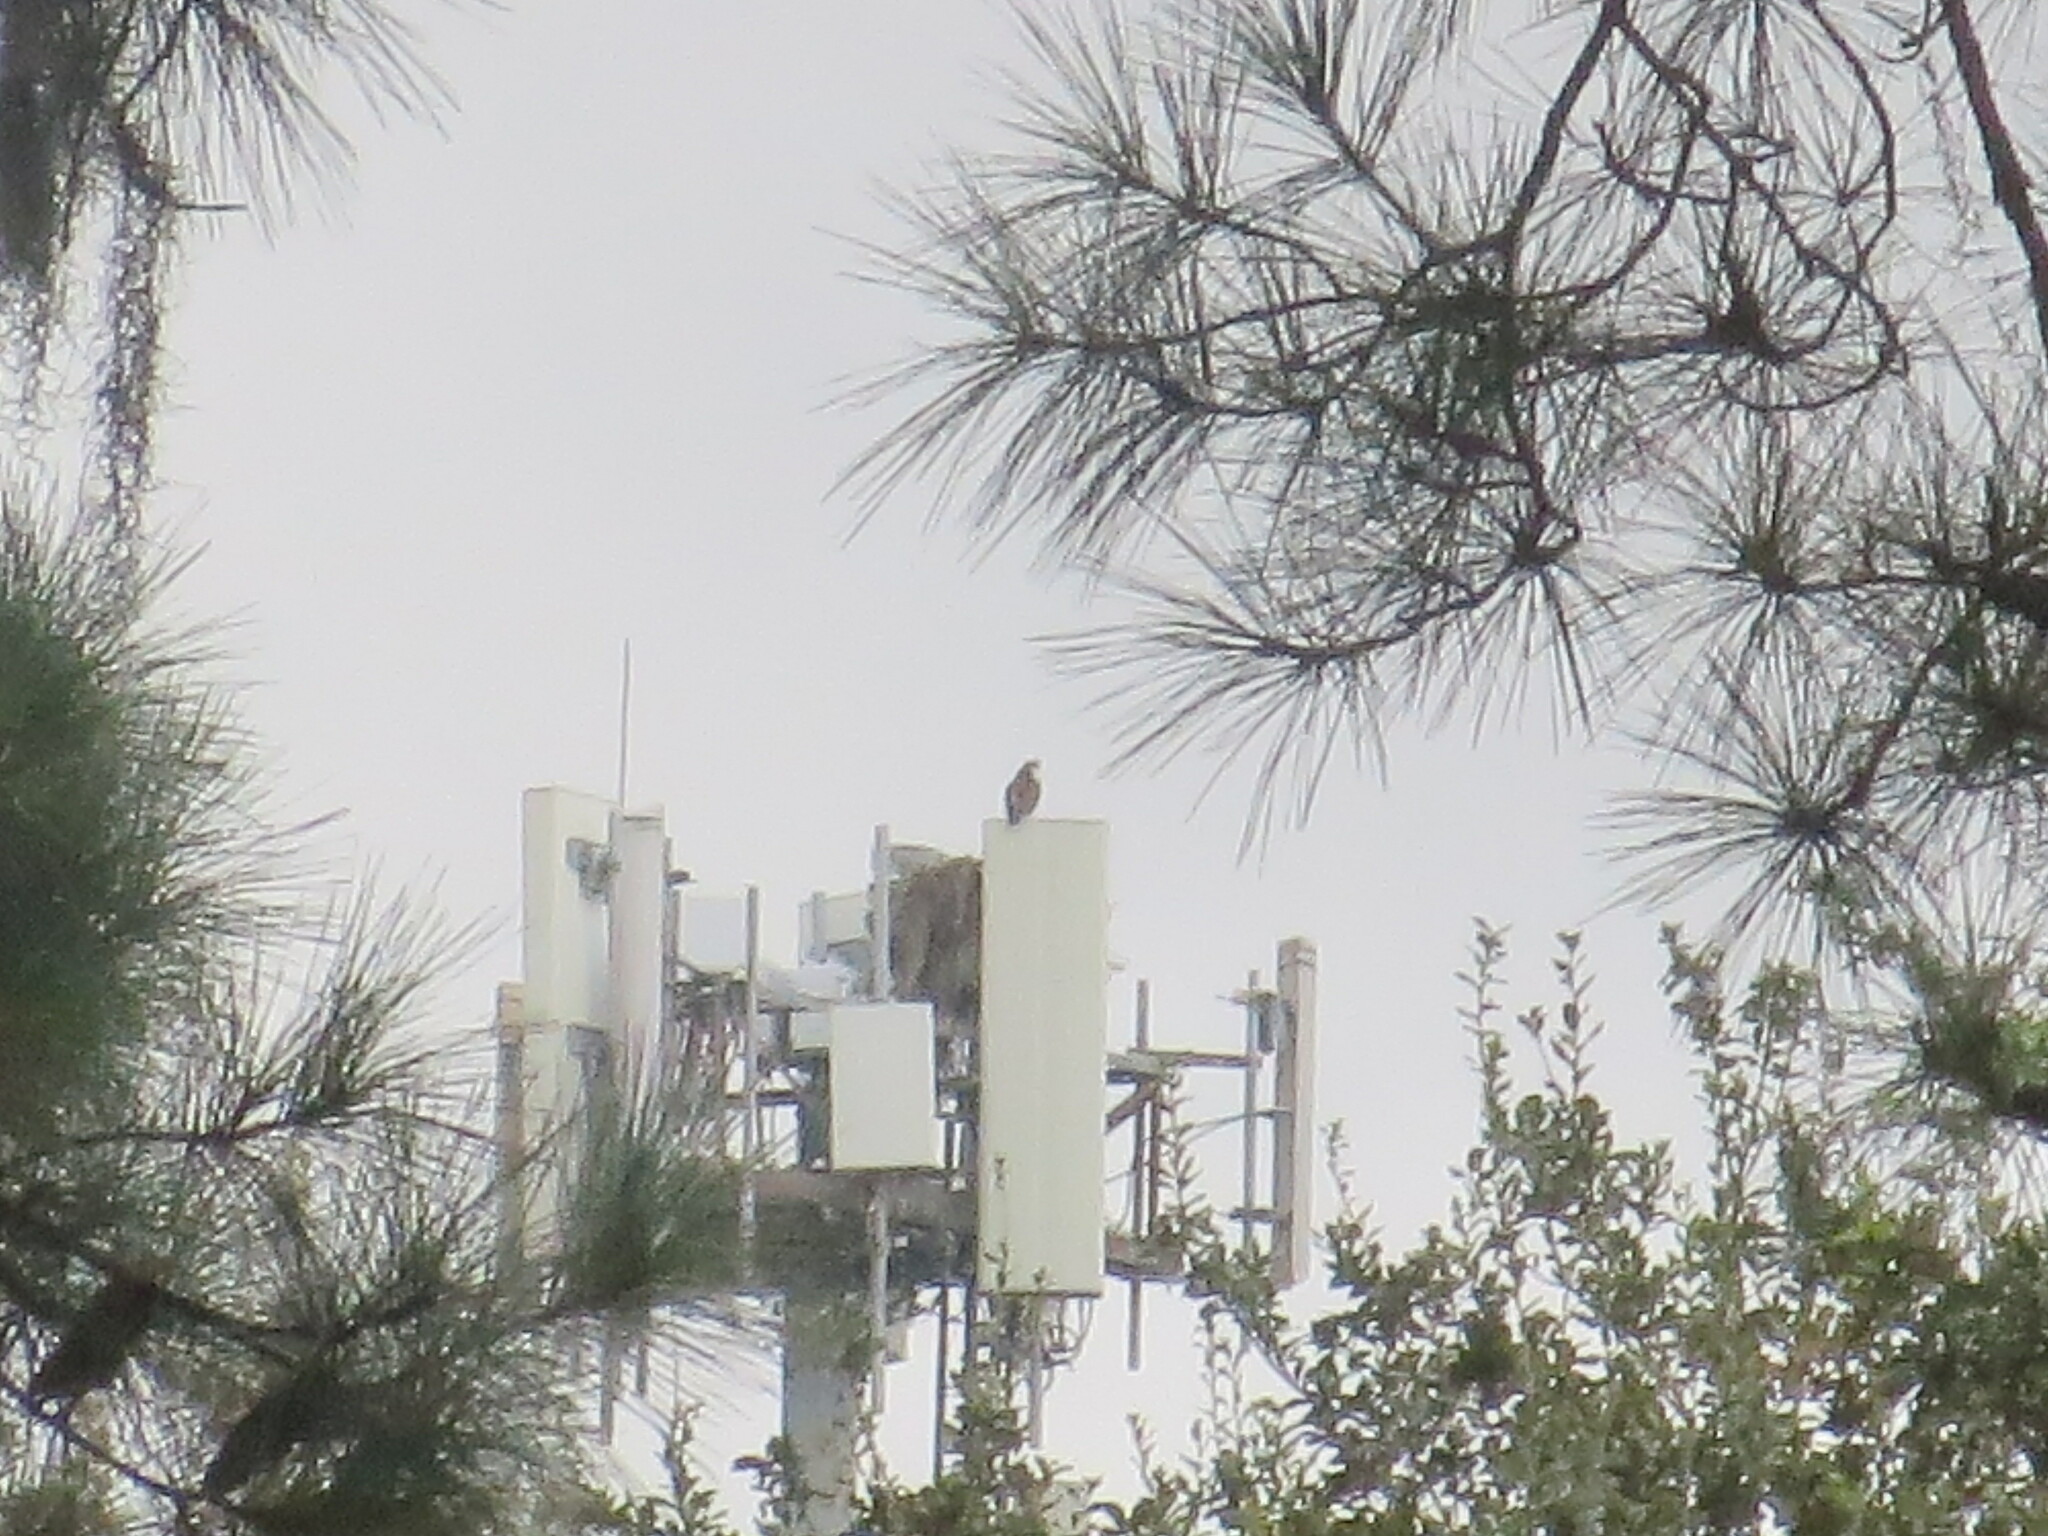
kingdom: Animalia
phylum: Chordata
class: Aves
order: Accipitriformes
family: Pandionidae
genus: Pandion
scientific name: Pandion haliaetus
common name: Osprey
